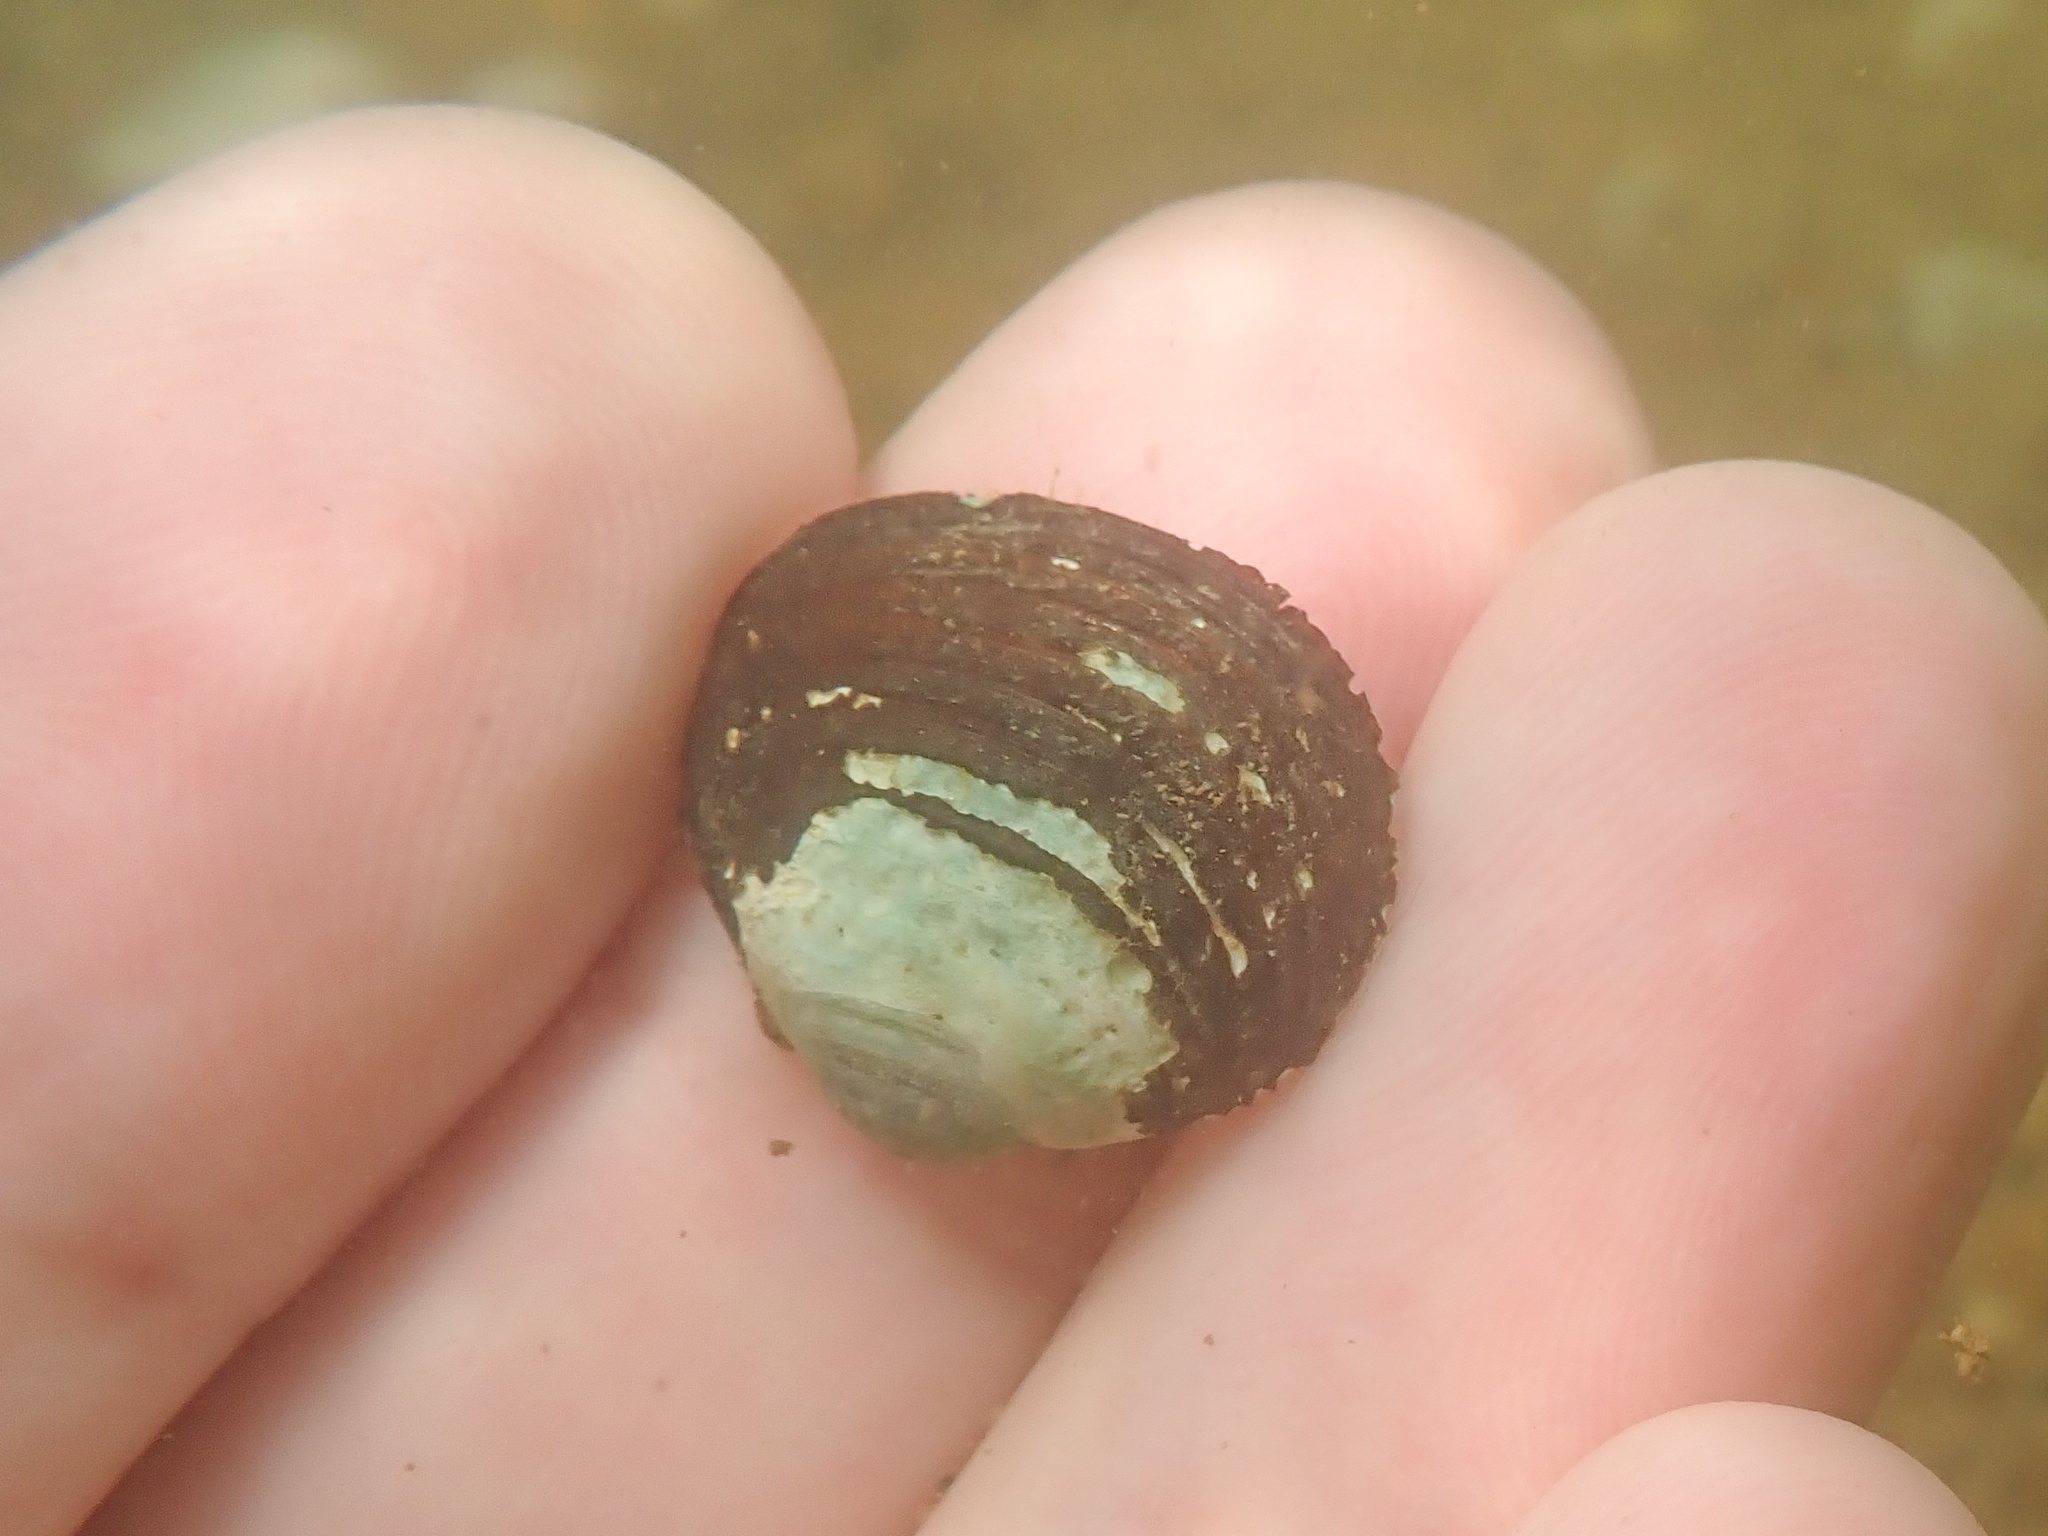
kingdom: Animalia
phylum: Mollusca
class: Bivalvia
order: Venerida
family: Cyrenidae
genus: Corbicula
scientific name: Corbicula fluminea
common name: Asian clam
